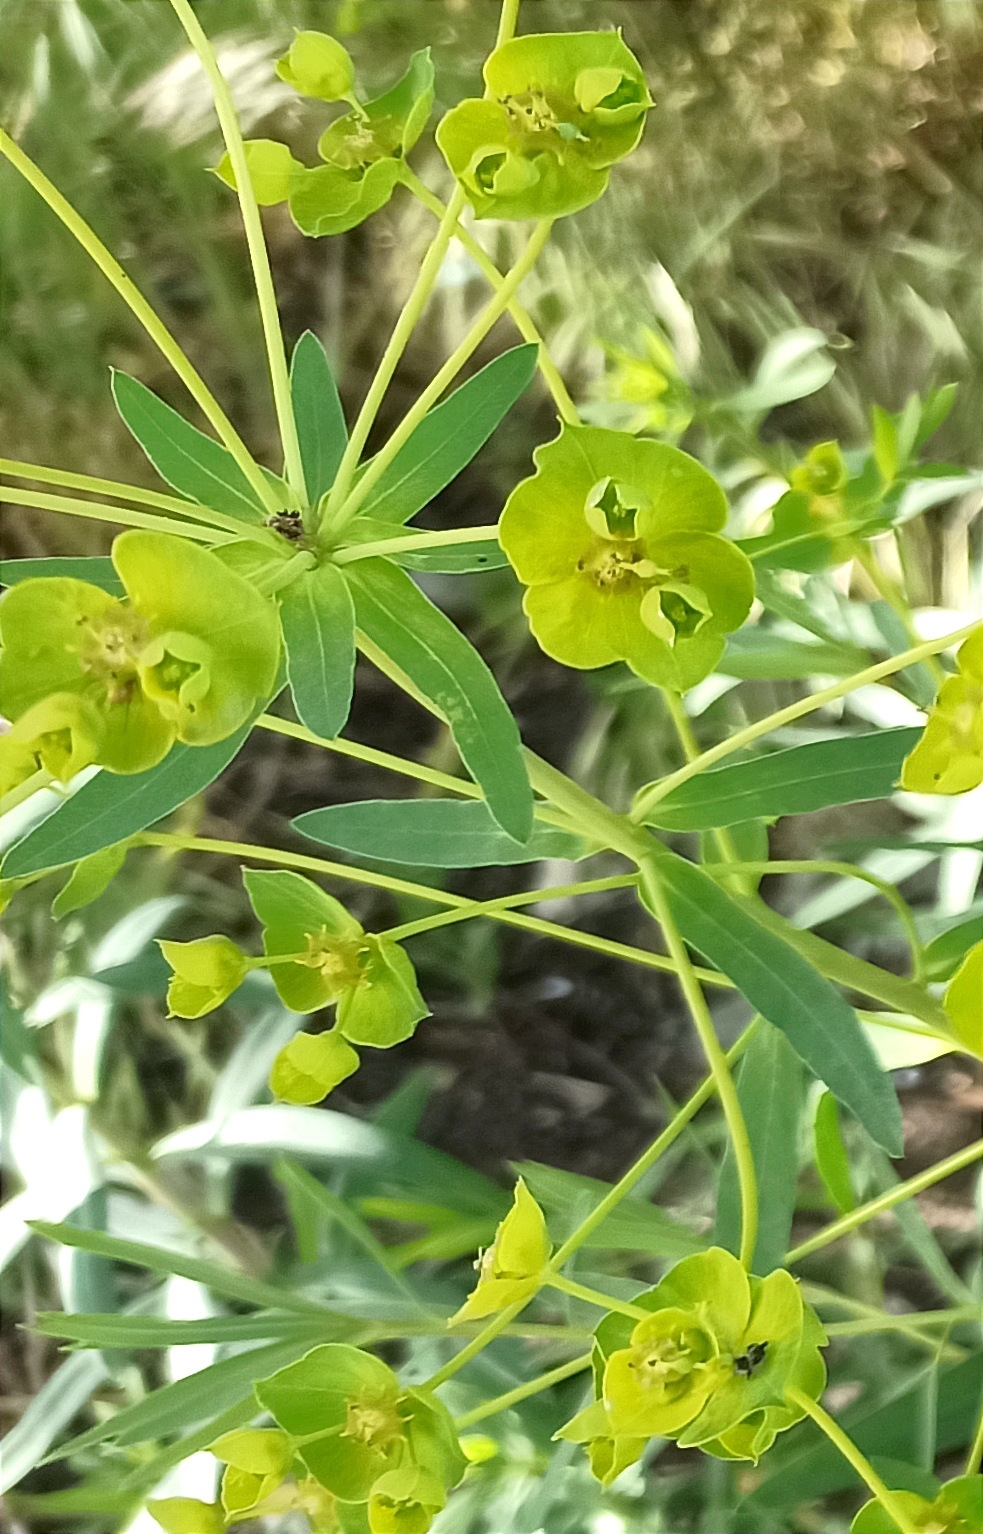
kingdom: Plantae
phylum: Tracheophyta
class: Magnoliopsida
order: Malpighiales
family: Euphorbiaceae
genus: Euphorbia
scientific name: Euphorbia virgata
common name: Leafy spurge
